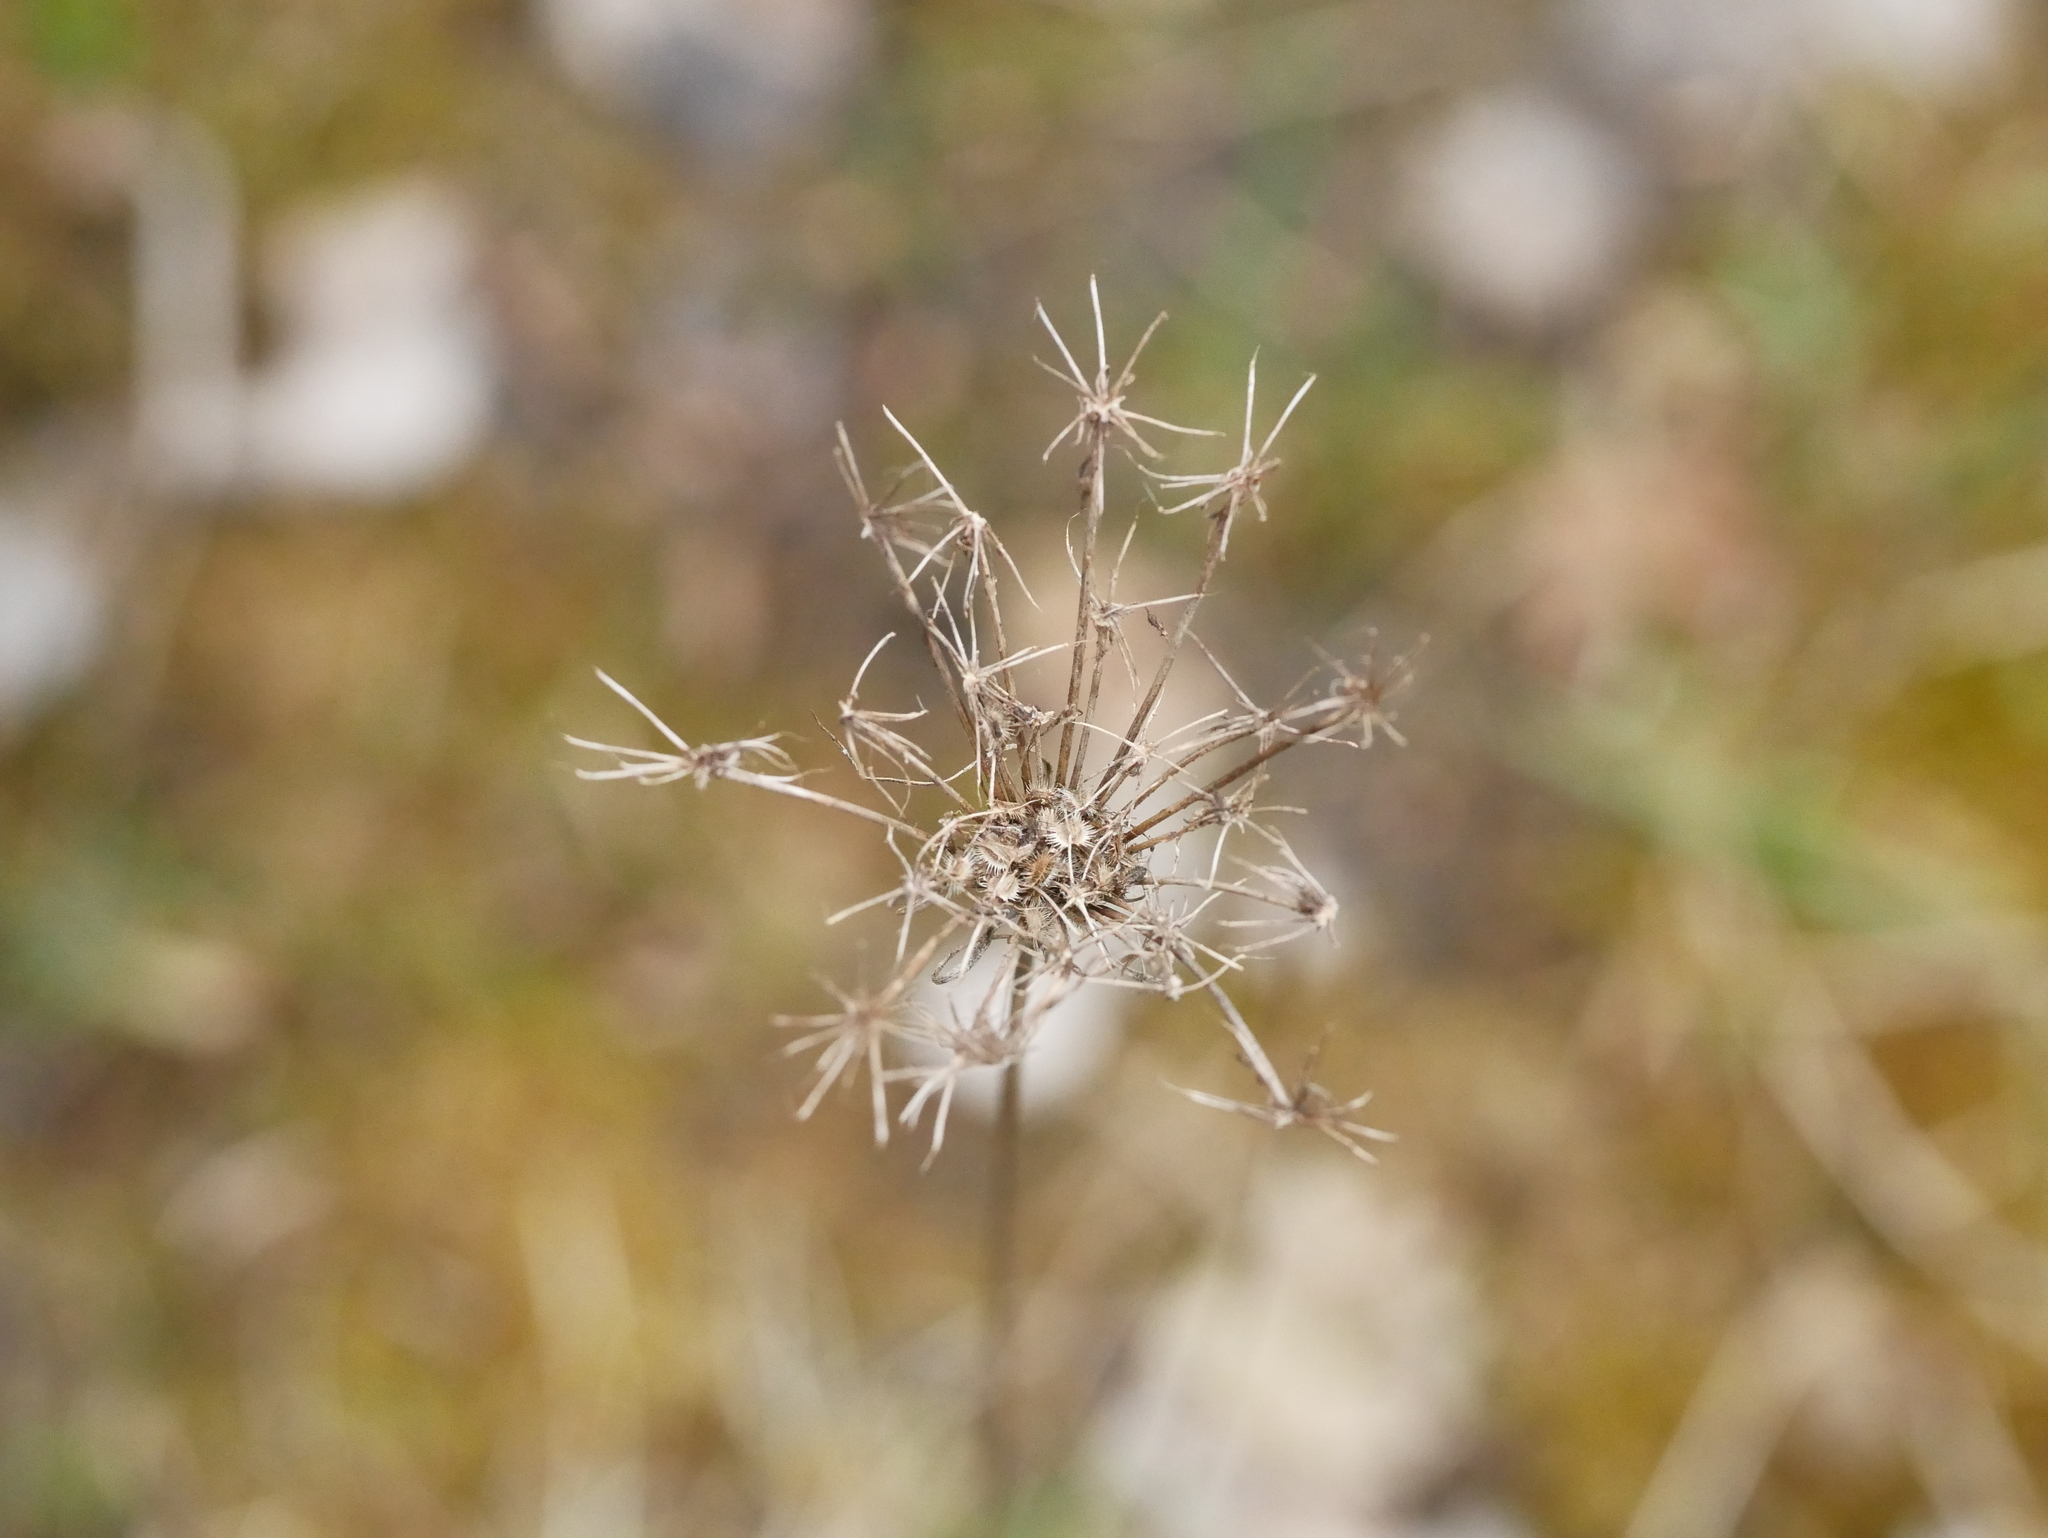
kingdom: Plantae
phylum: Tracheophyta
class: Magnoliopsida
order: Apiales
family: Apiaceae
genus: Daucus
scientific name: Daucus carota
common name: Wild carrot
